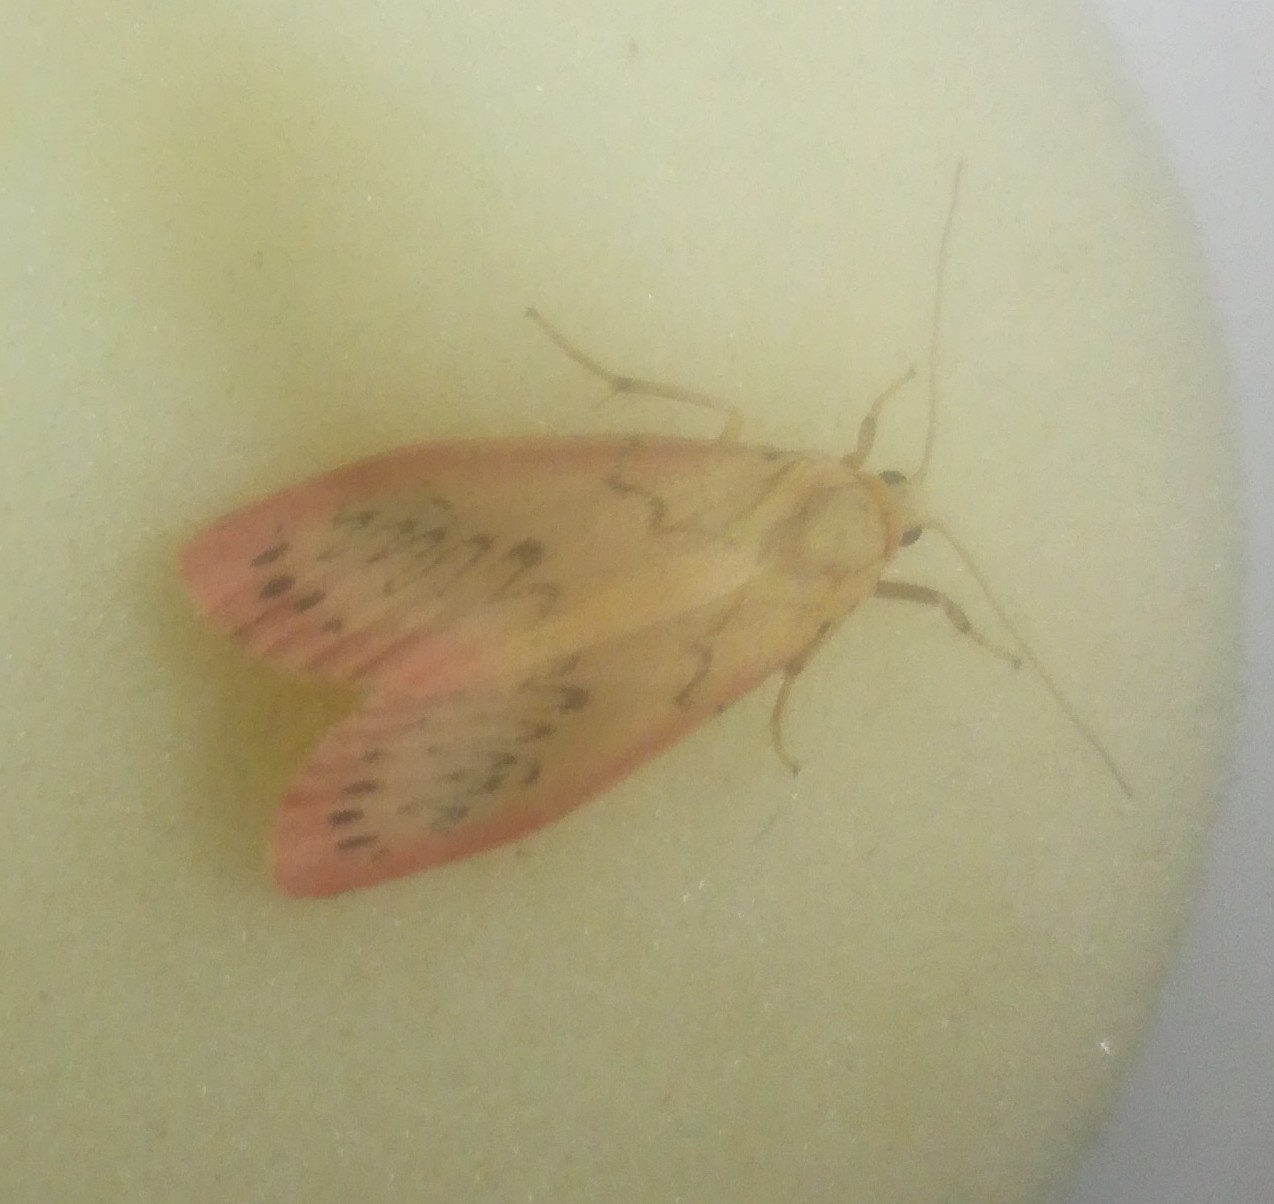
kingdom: Animalia
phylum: Arthropoda
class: Insecta
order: Lepidoptera
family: Erebidae
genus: Miltochrista
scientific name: Miltochrista miniata
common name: Rosy footman
